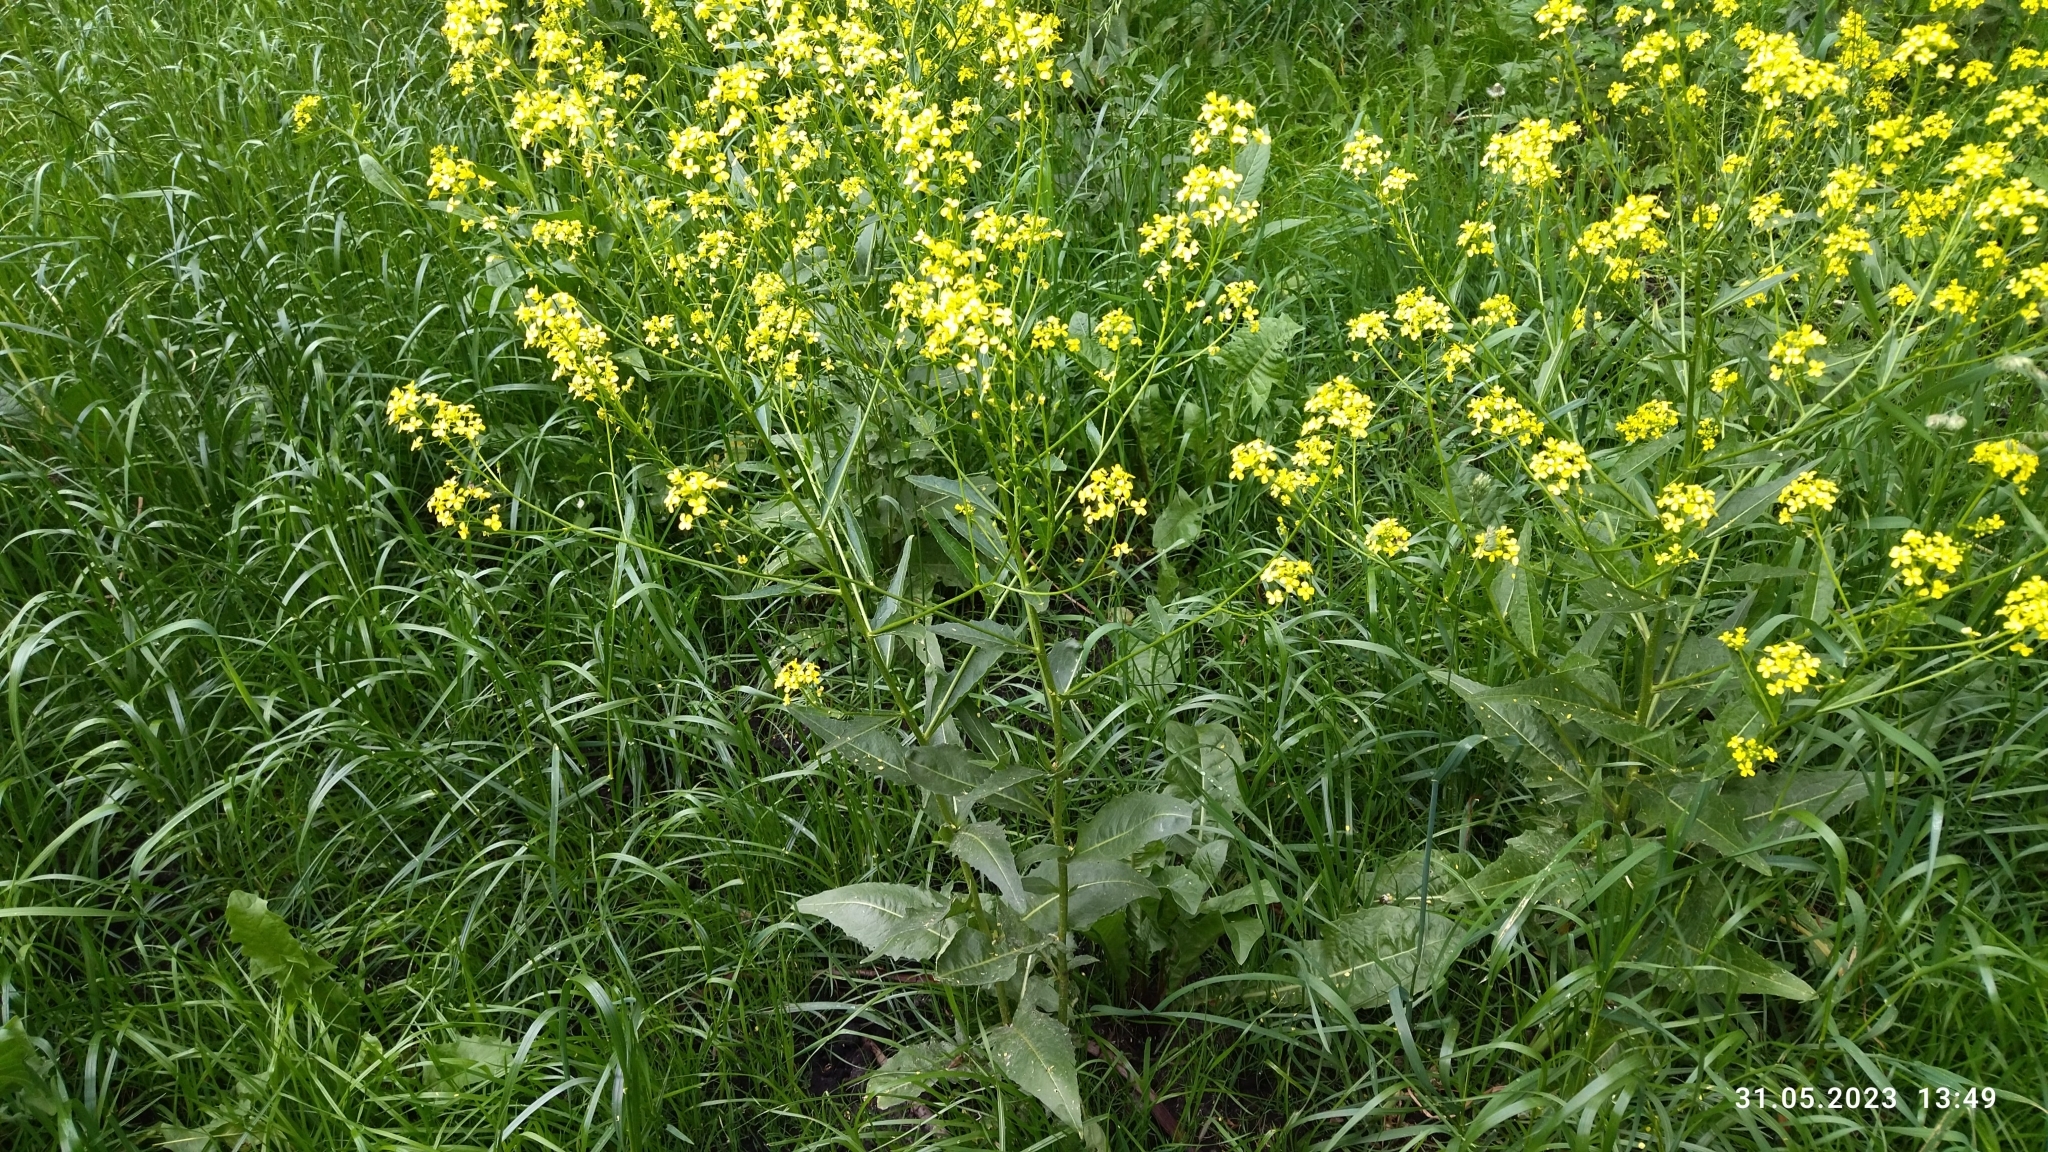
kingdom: Plantae
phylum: Tracheophyta
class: Magnoliopsida
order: Brassicales
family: Brassicaceae
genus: Bunias
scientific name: Bunias orientalis
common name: Warty-cabbage
